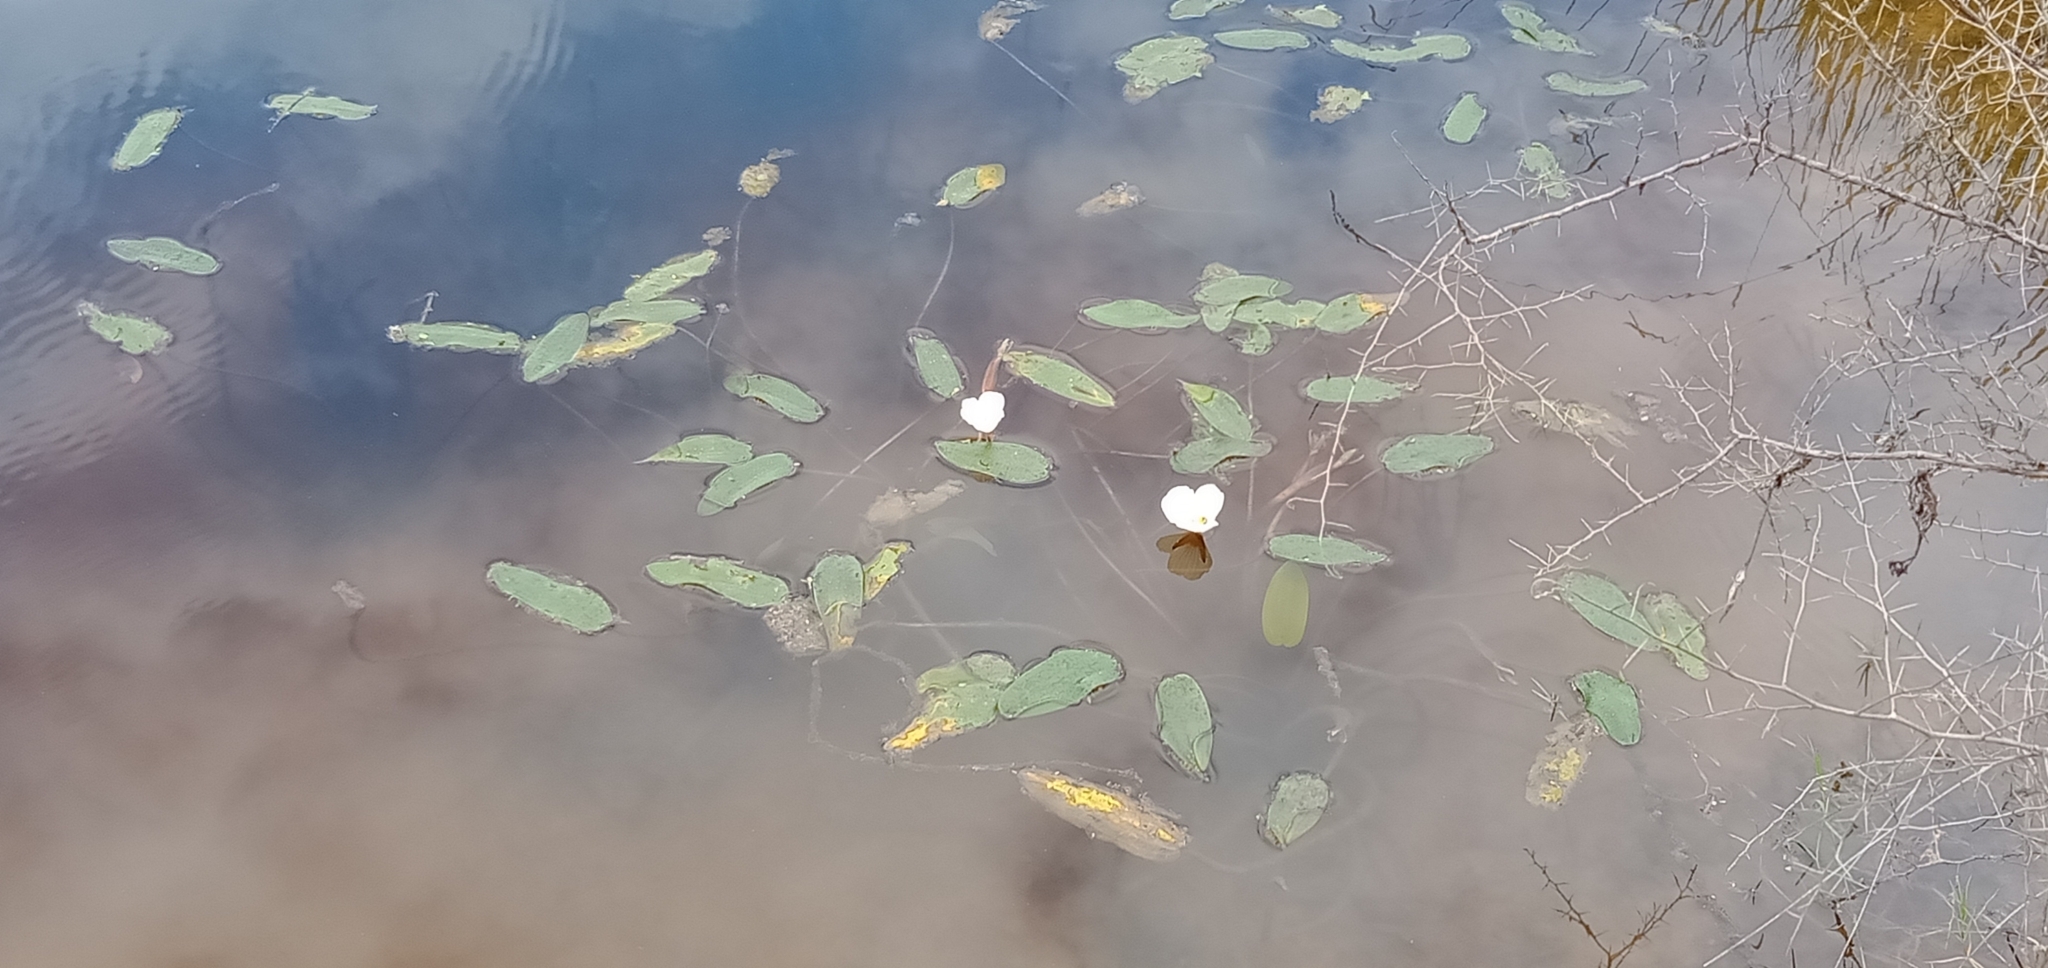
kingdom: Plantae
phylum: Tracheophyta
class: Liliopsida
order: Alismatales
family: Hydrocharitaceae
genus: Ottelia
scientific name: Ottelia ovalifolia
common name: Swamp-lily
